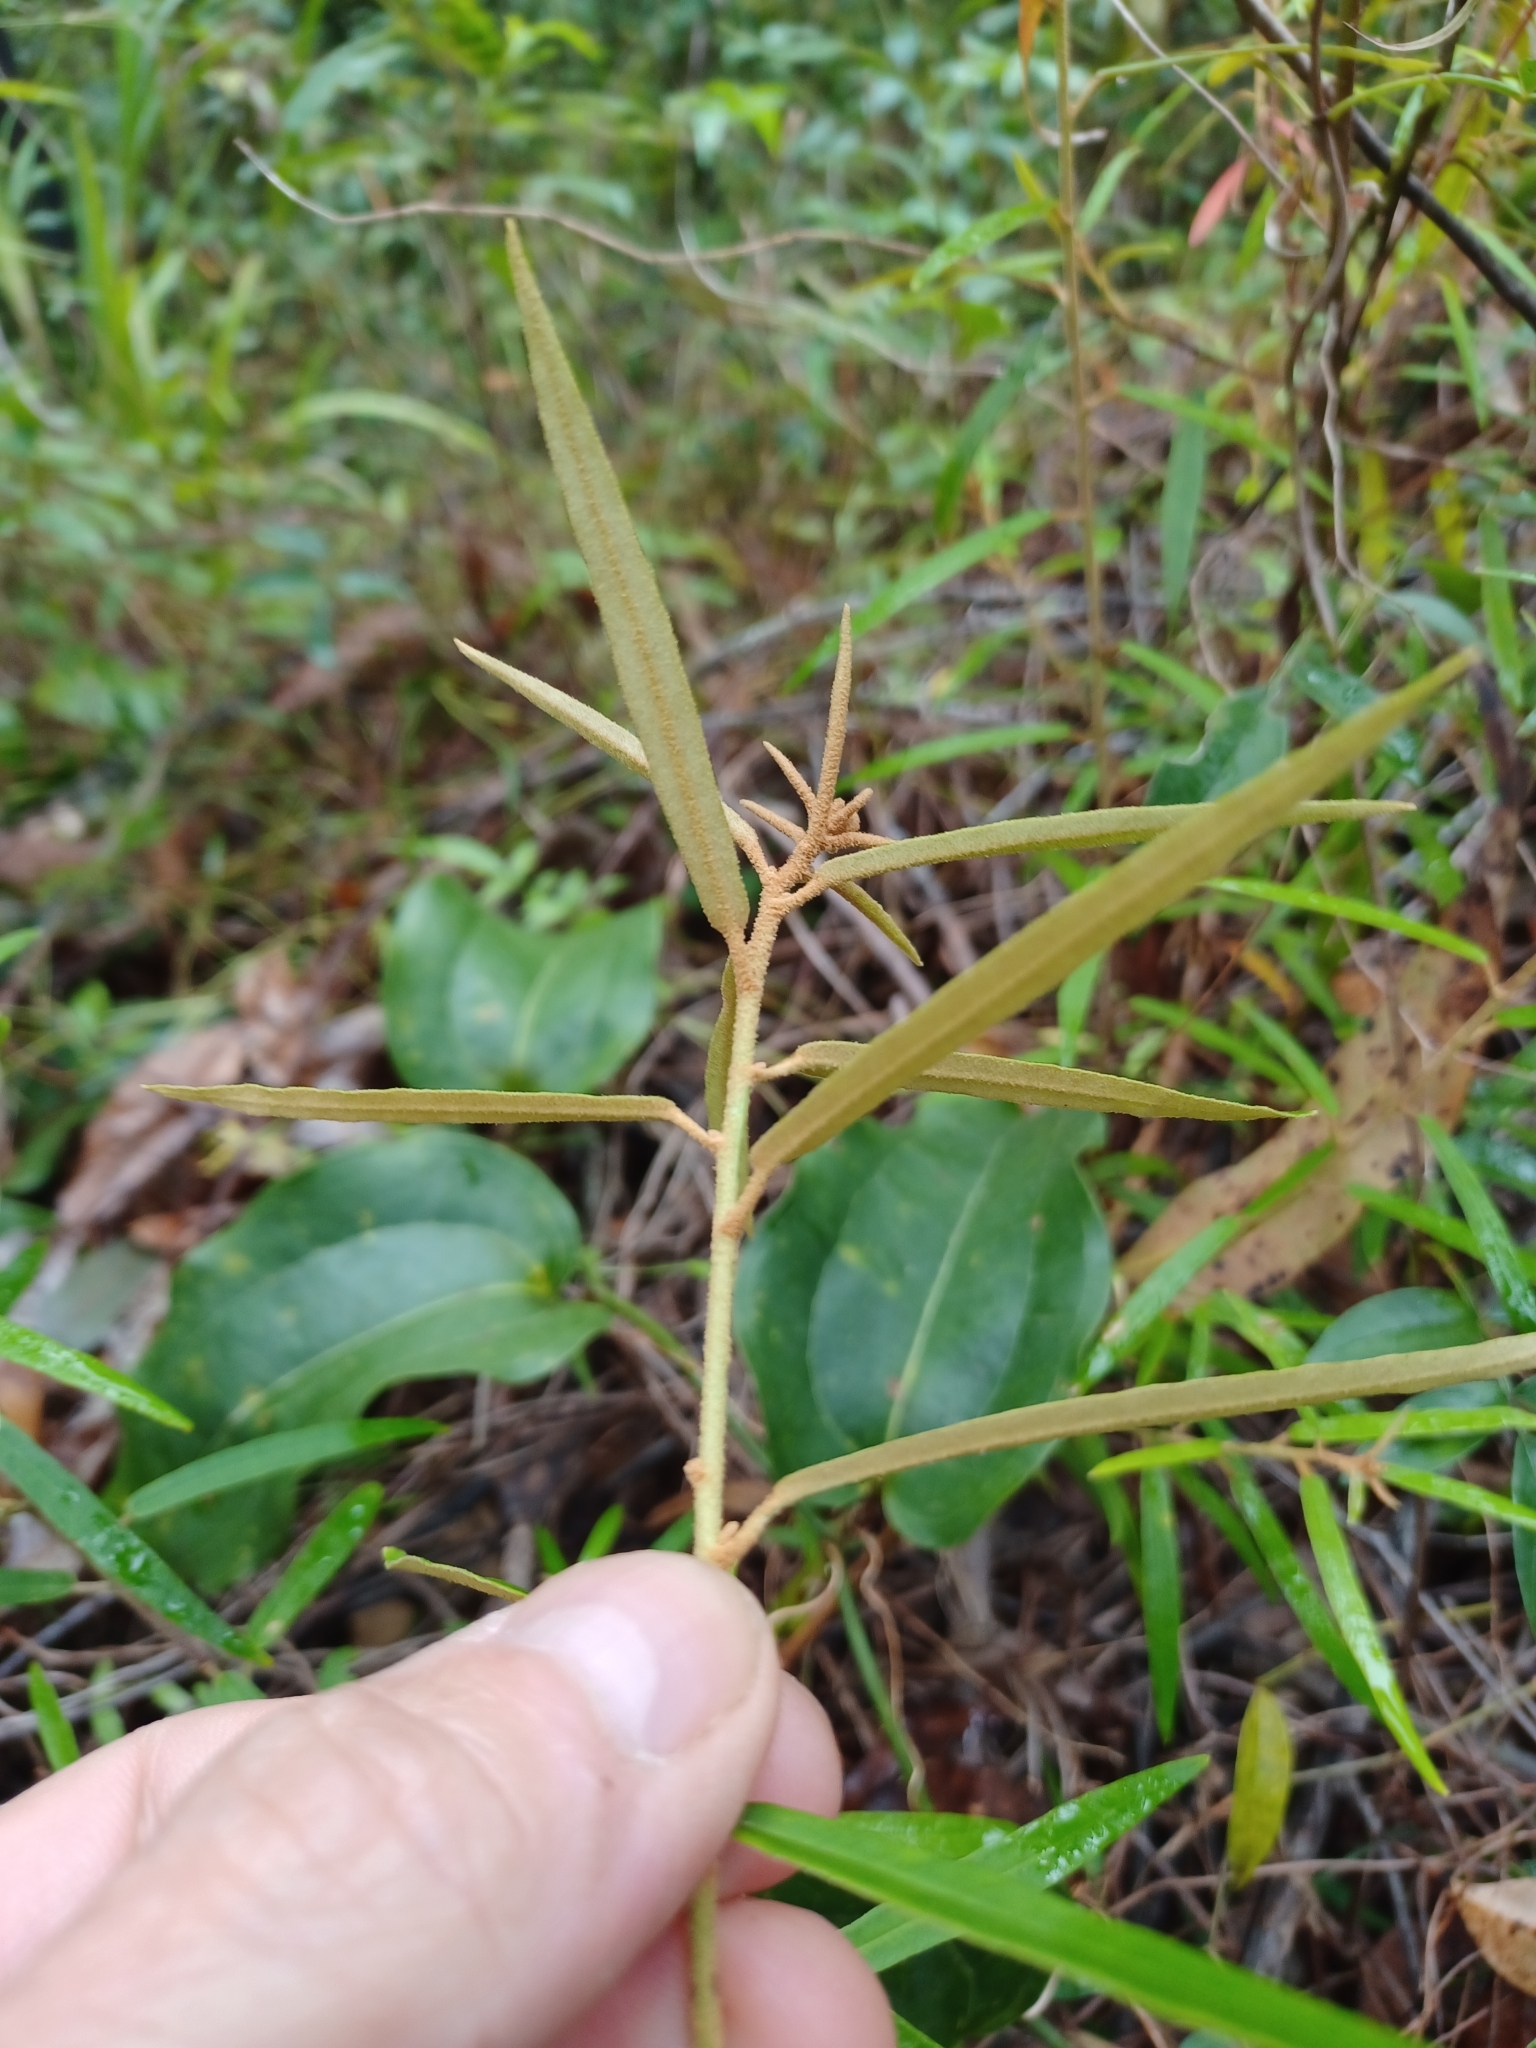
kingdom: Plantae
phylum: Tracheophyta
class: Magnoliopsida
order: Apiales
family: Araliaceae
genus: Astrotricha
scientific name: Astrotricha longifolia
